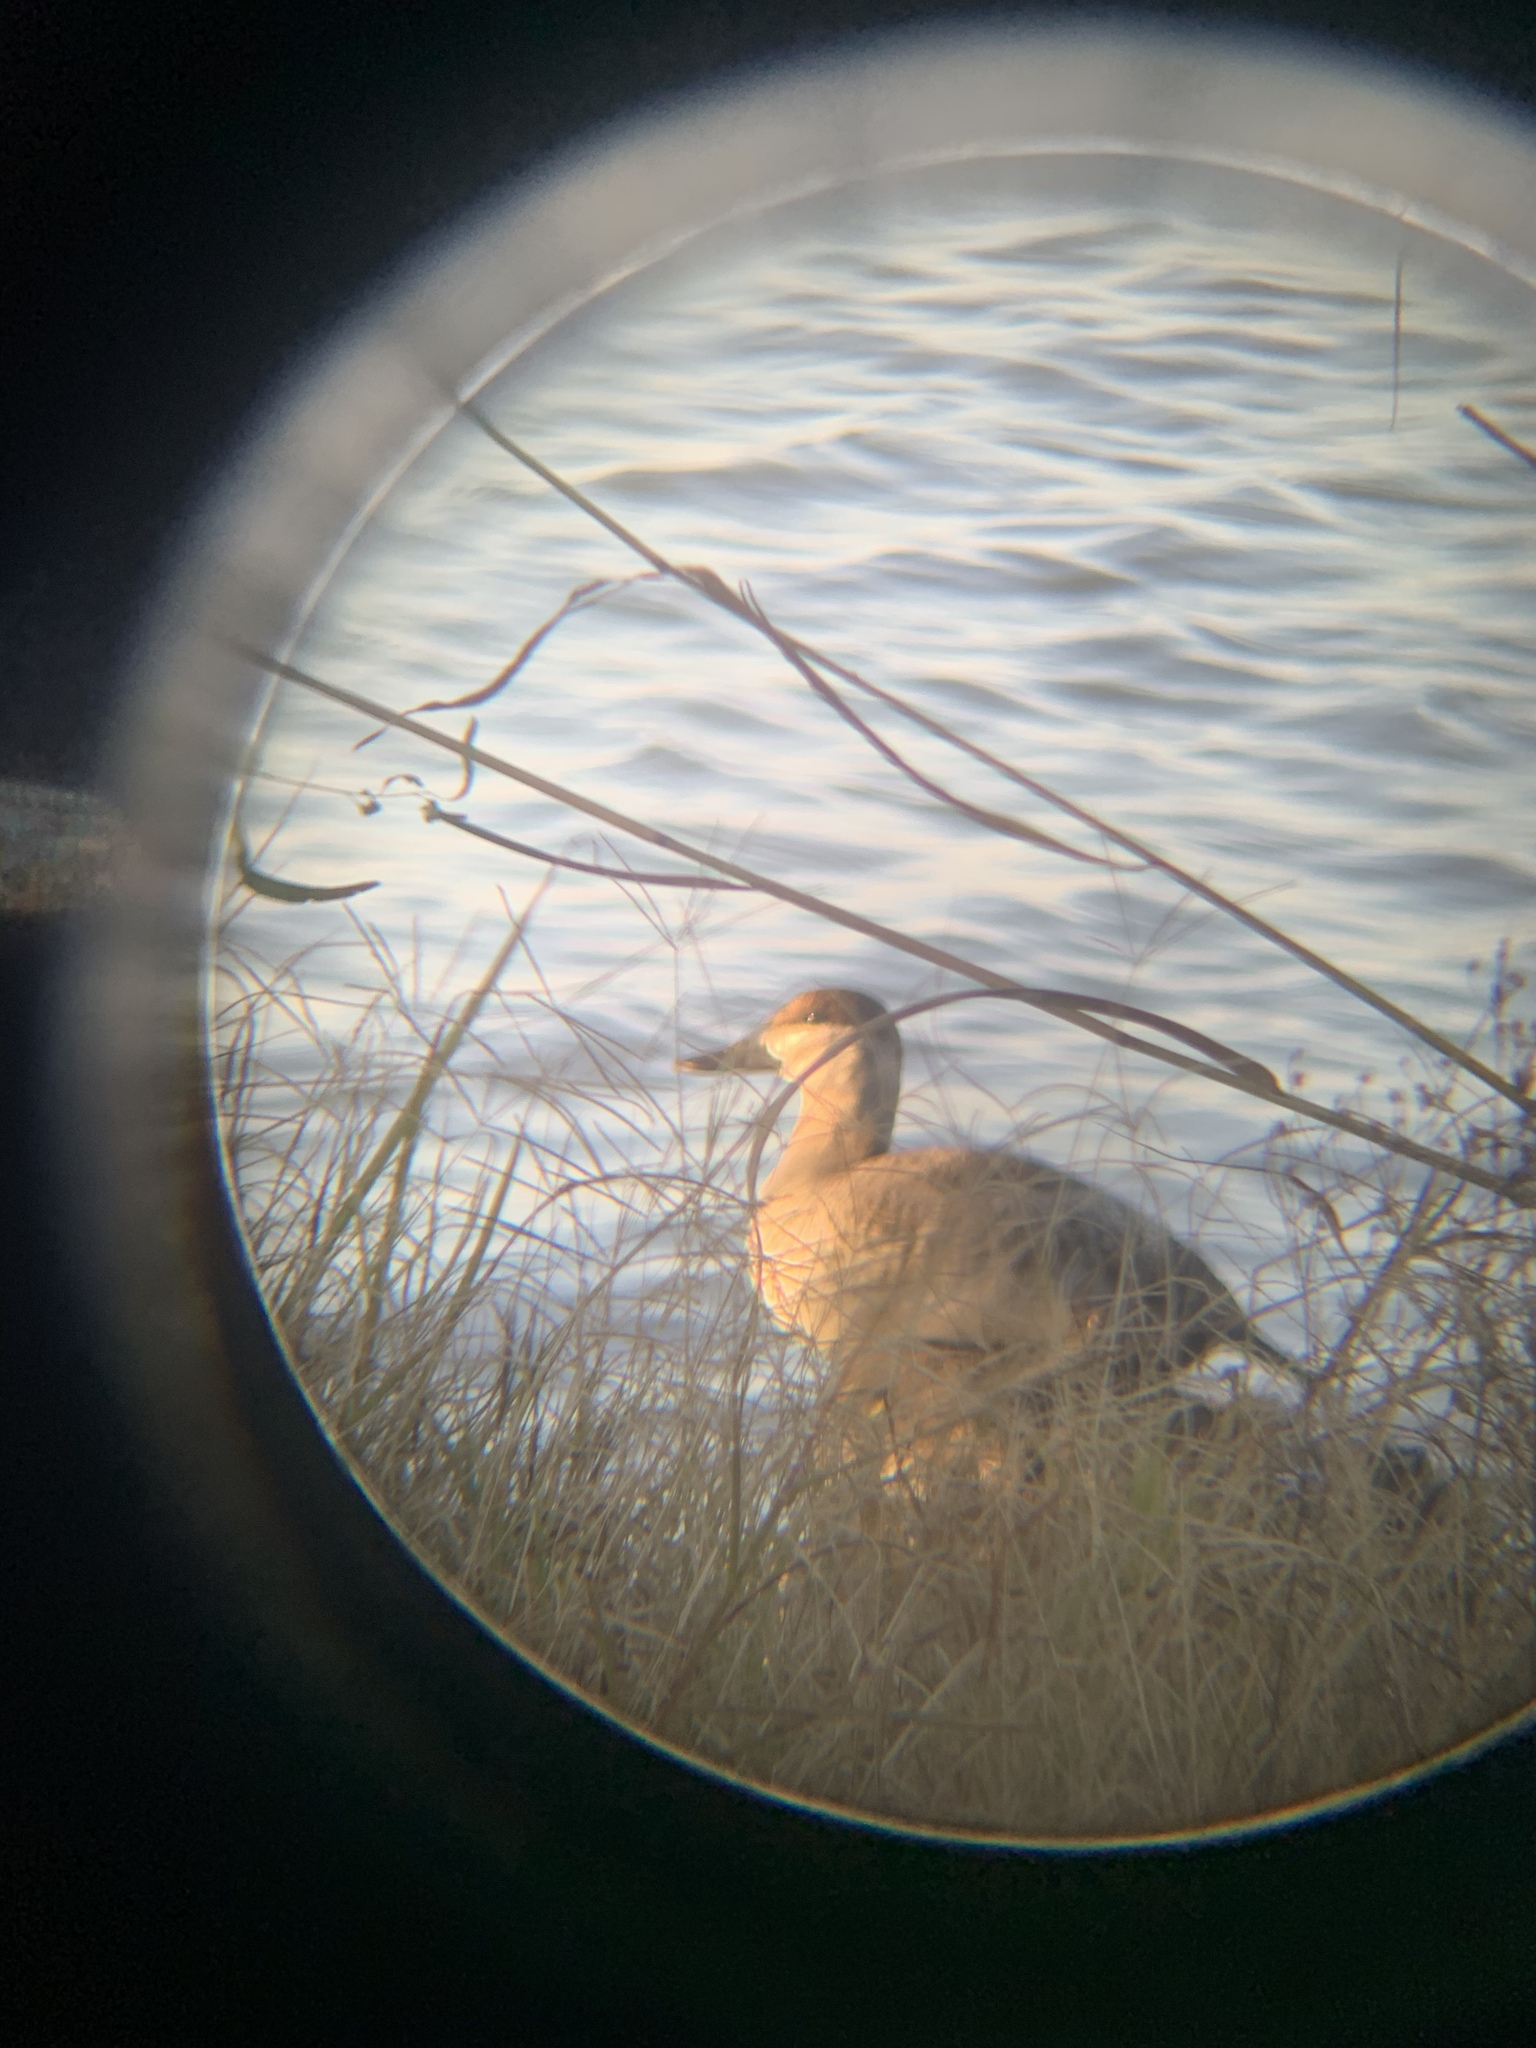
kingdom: Animalia
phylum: Chordata
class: Aves
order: Anseriformes
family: Anatidae
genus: Oxyura
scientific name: Oxyura jamaicensis
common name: Ruddy duck
